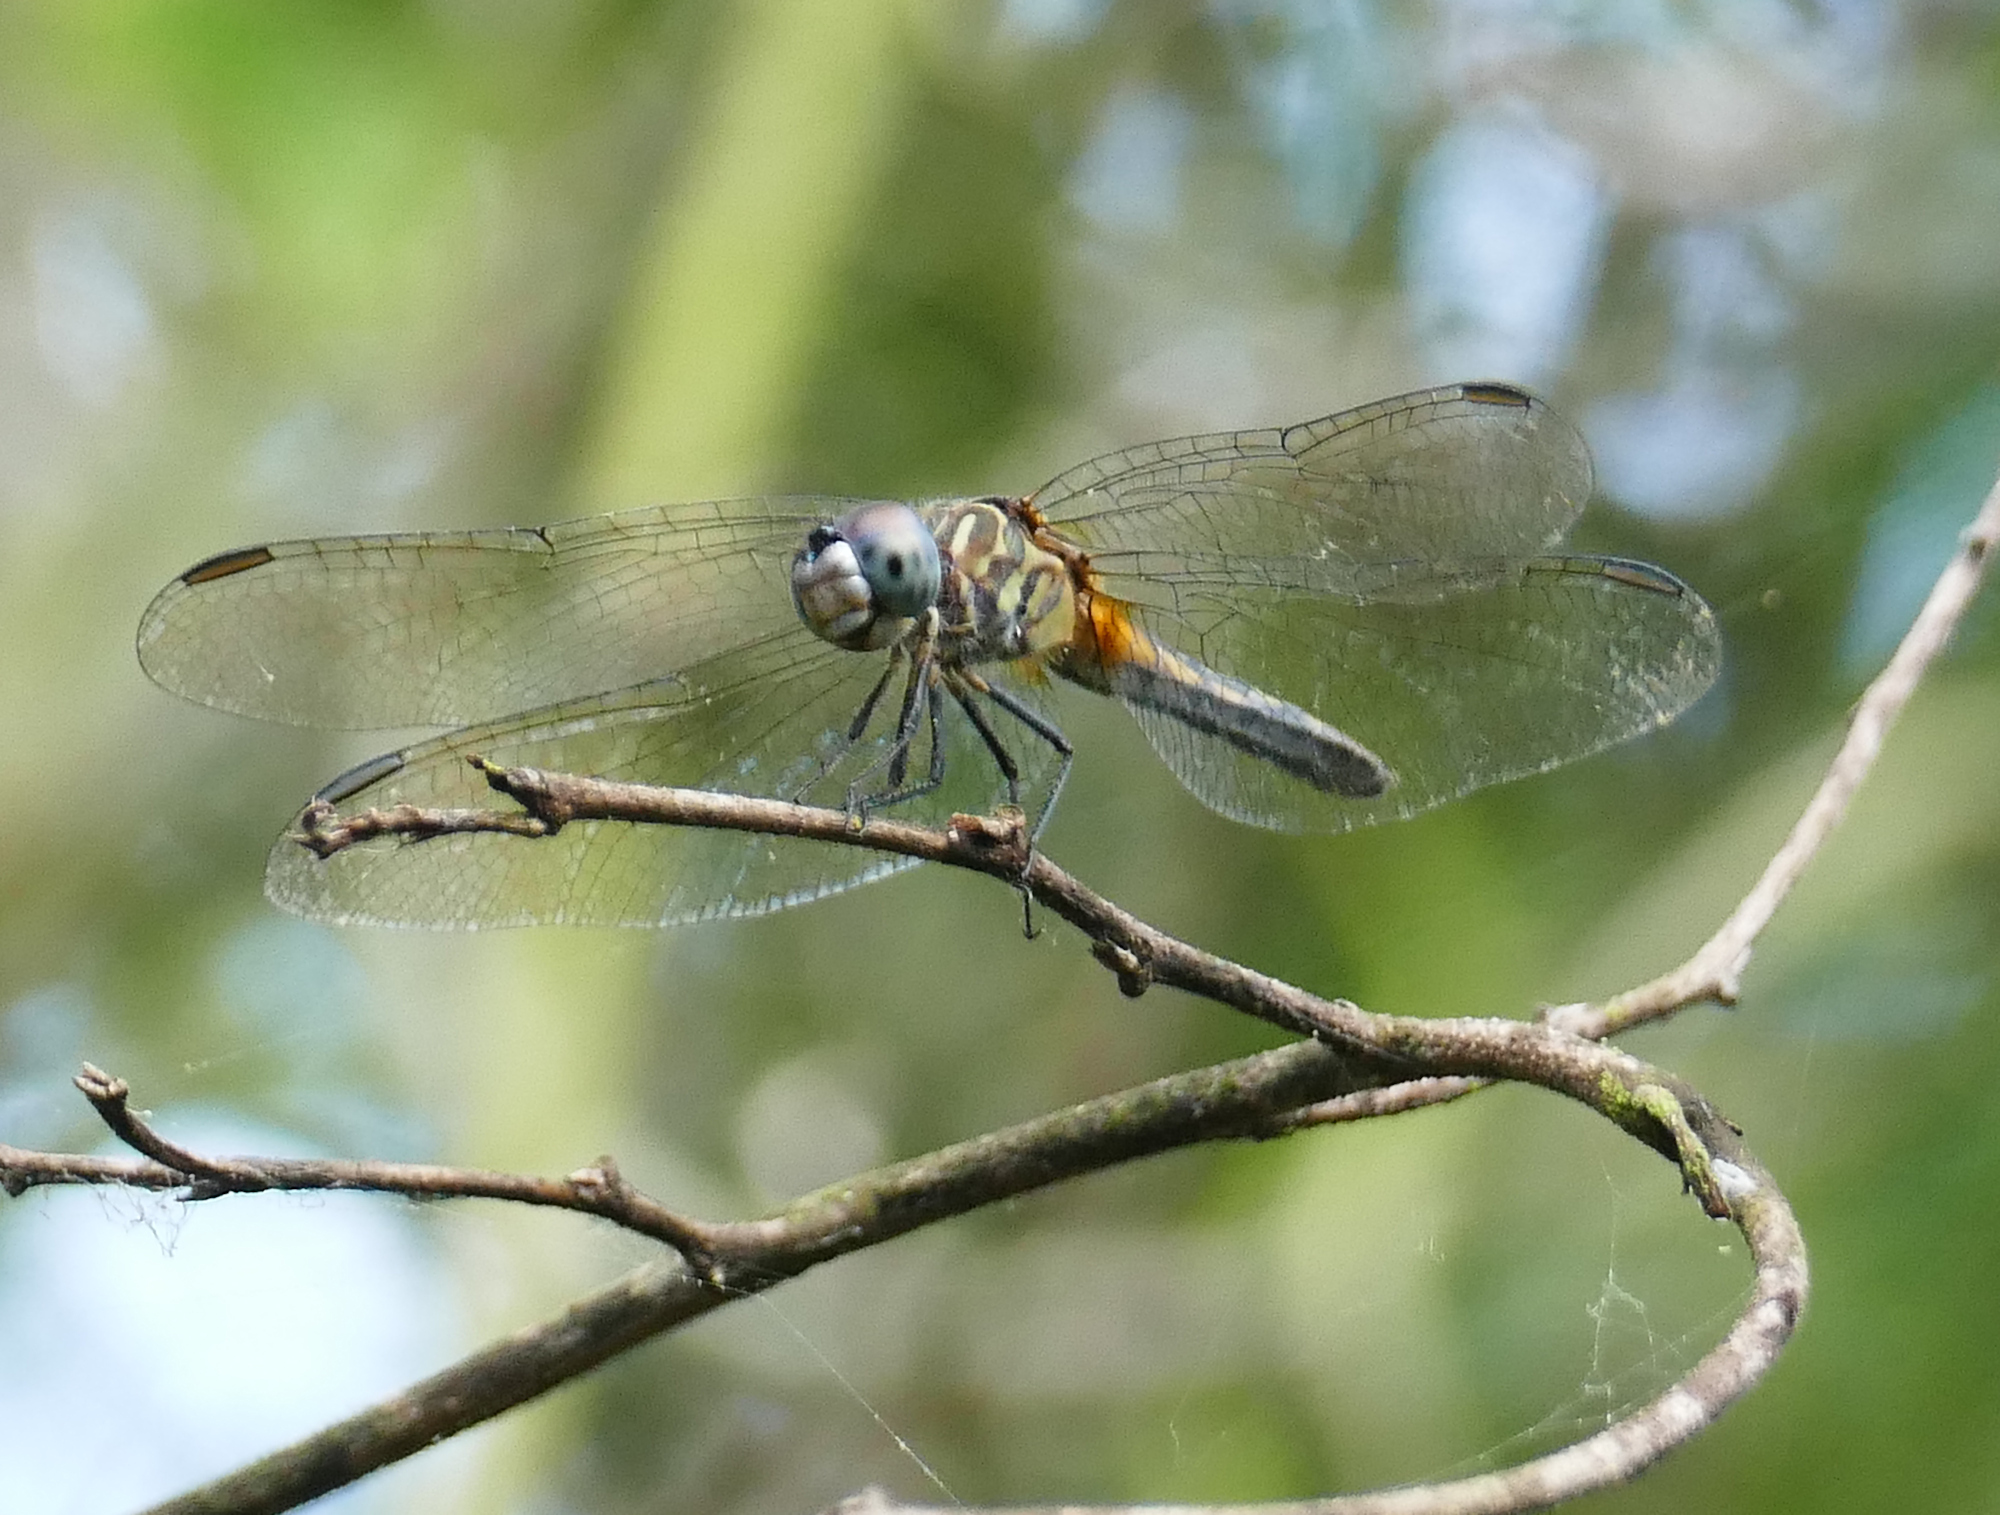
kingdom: Animalia
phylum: Arthropoda
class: Insecta
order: Odonata
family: Libellulidae
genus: Pachydiplax
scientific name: Pachydiplax longipennis
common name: Blue dasher
